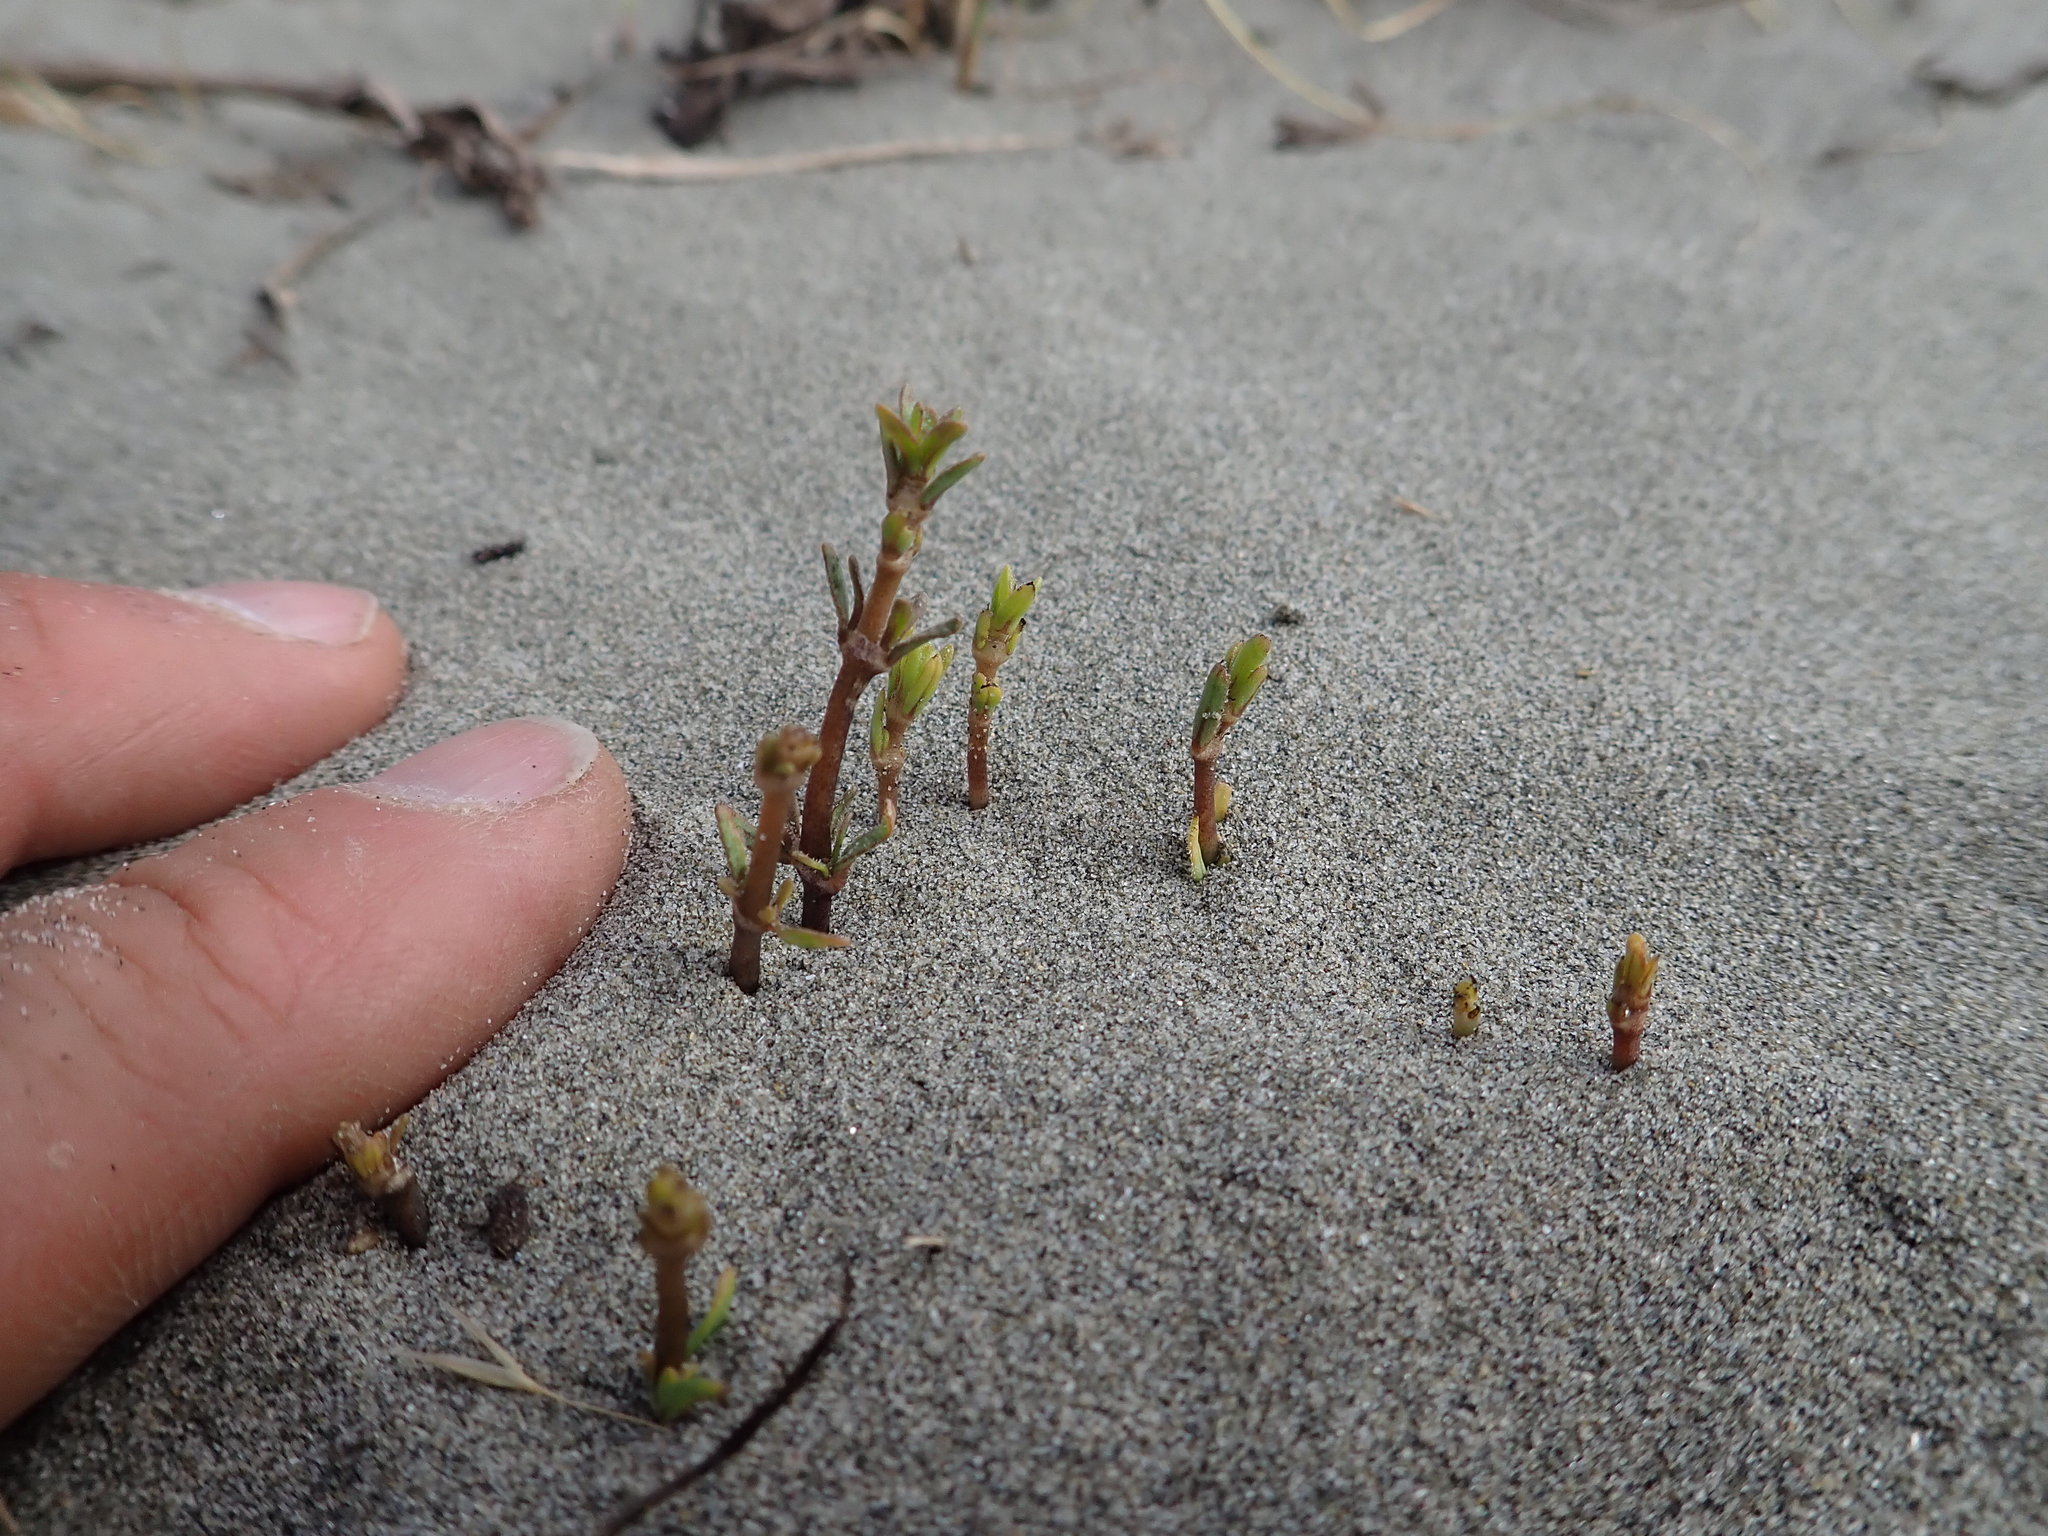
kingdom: Plantae
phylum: Tracheophyta
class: Magnoliopsida
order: Gentianales
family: Rubiaceae
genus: Coprosma
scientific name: Coprosma acerosa
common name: Sand coprosma
